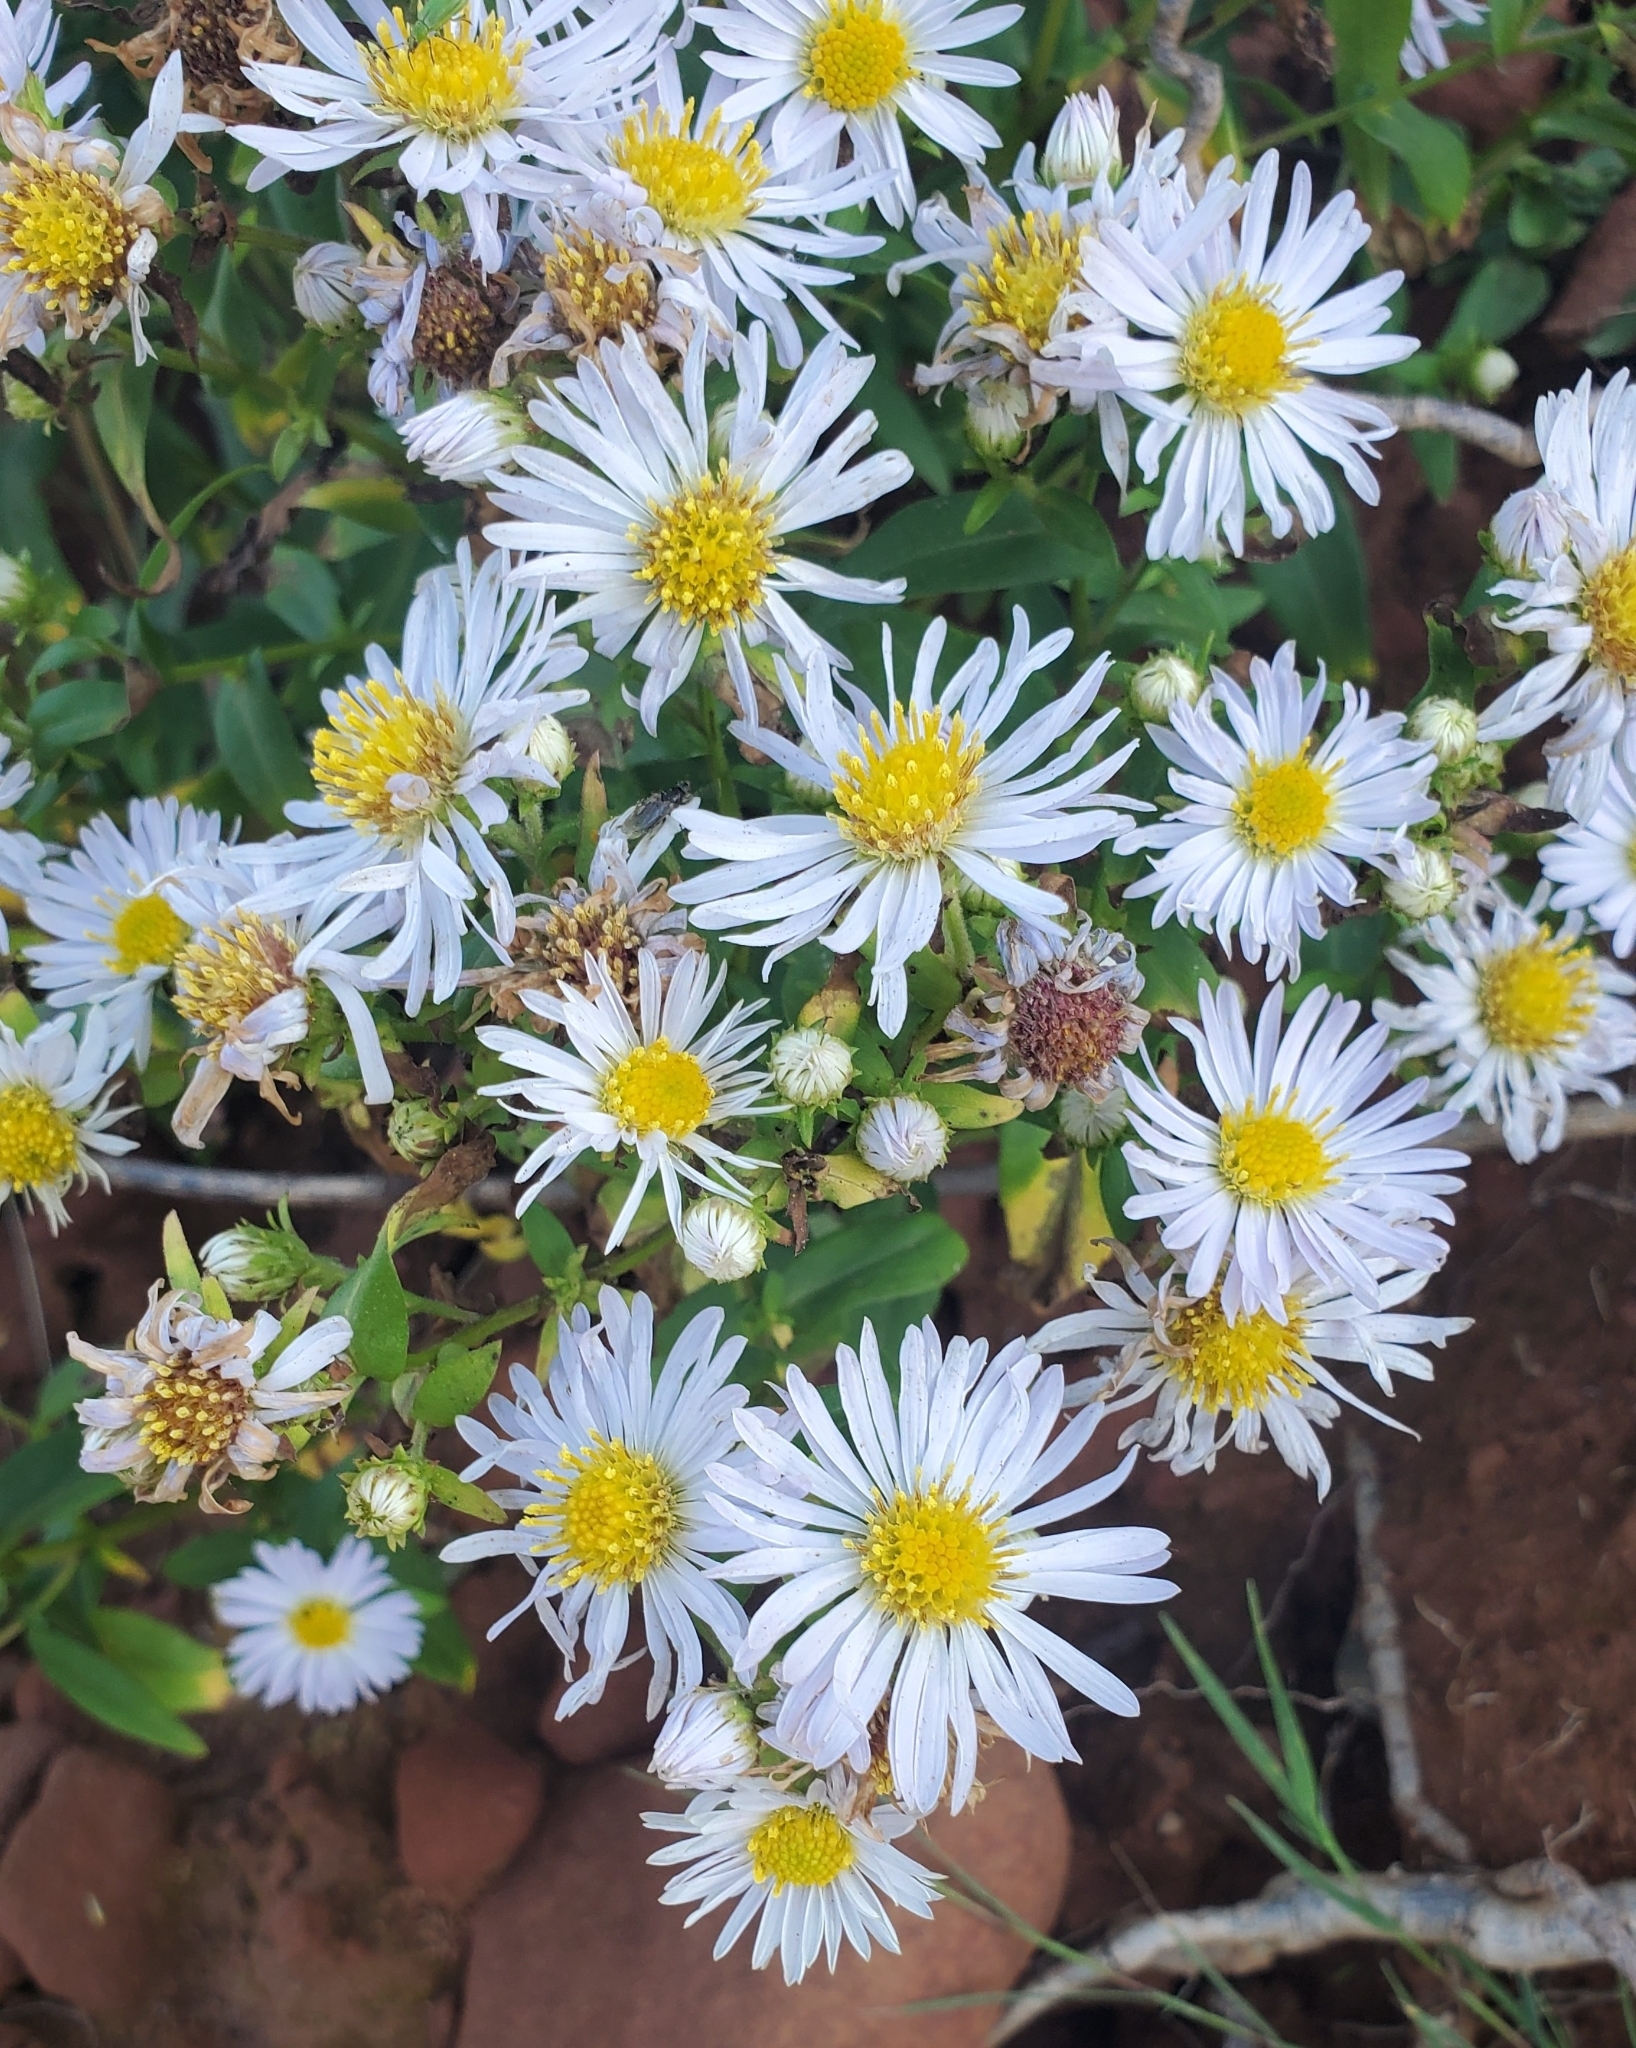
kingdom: Plantae
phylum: Tracheophyta
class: Magnoliopsida
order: Asterales
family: Asteraceae
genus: Symphyotrichum
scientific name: Symphyotrichum novi-belgii
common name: Michaelmas daisy
